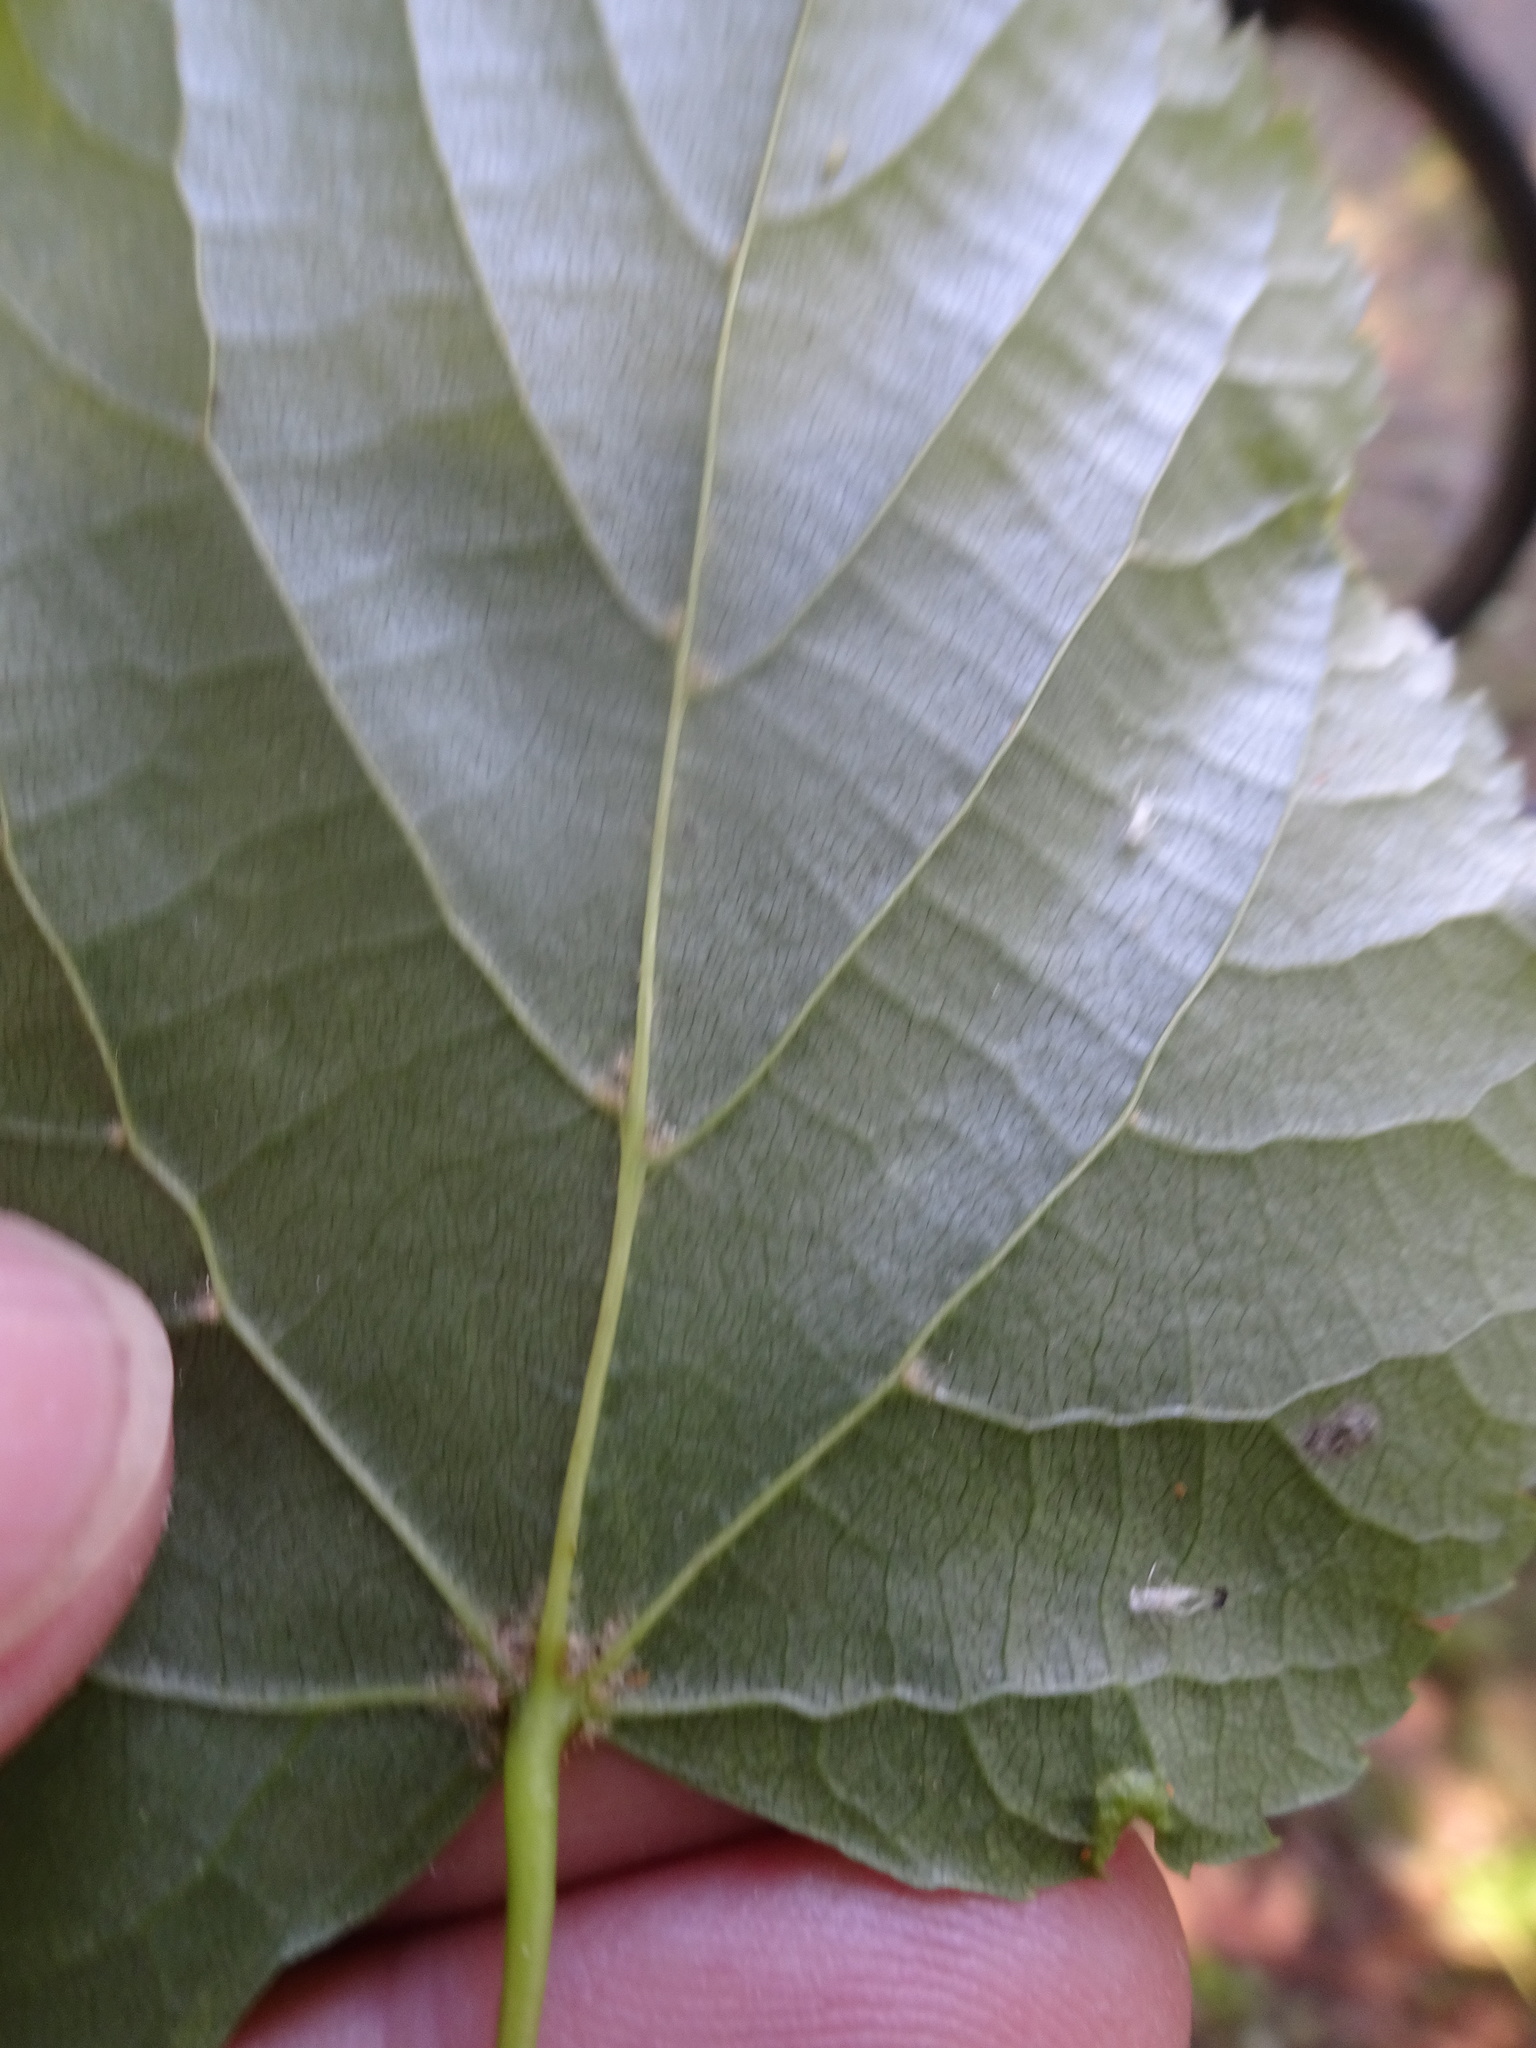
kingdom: Plantae
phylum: Tracheophyta
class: Magnoliopsida
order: Malvales
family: Malvaceae
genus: Tilia
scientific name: Tilia cordata
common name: Small-leaved lime
